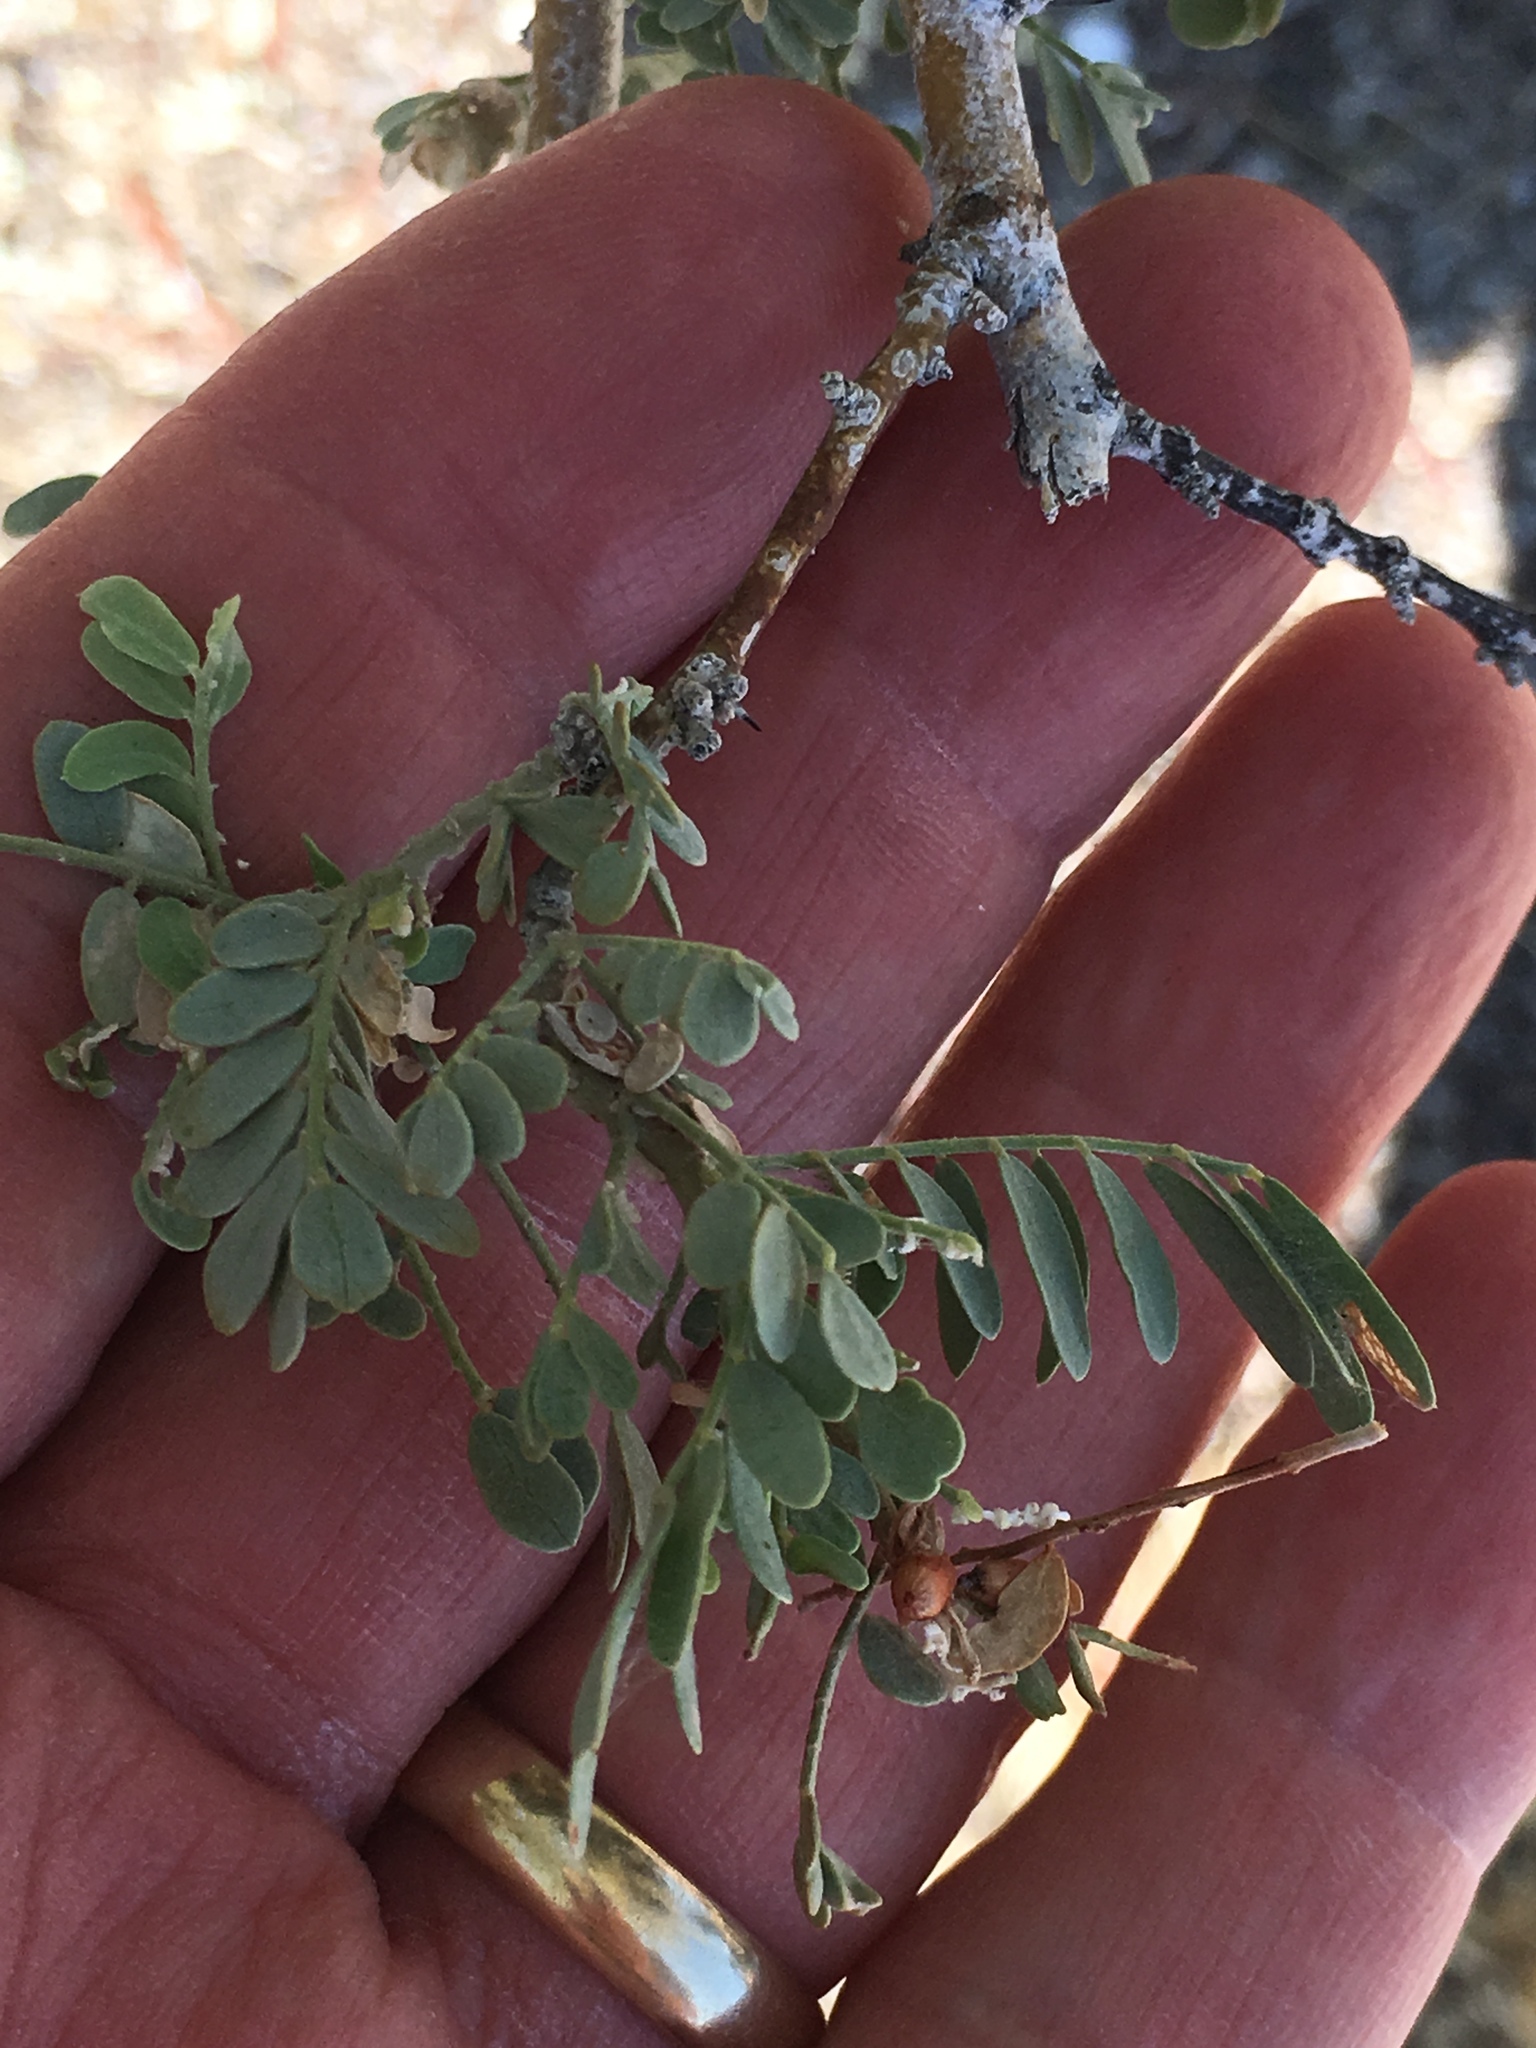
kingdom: Plantae
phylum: Tracheophyta
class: Magnoliopsida
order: Fabales
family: Fabaceae
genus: Olneya
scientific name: Olneya tesota
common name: Desert ironwood
